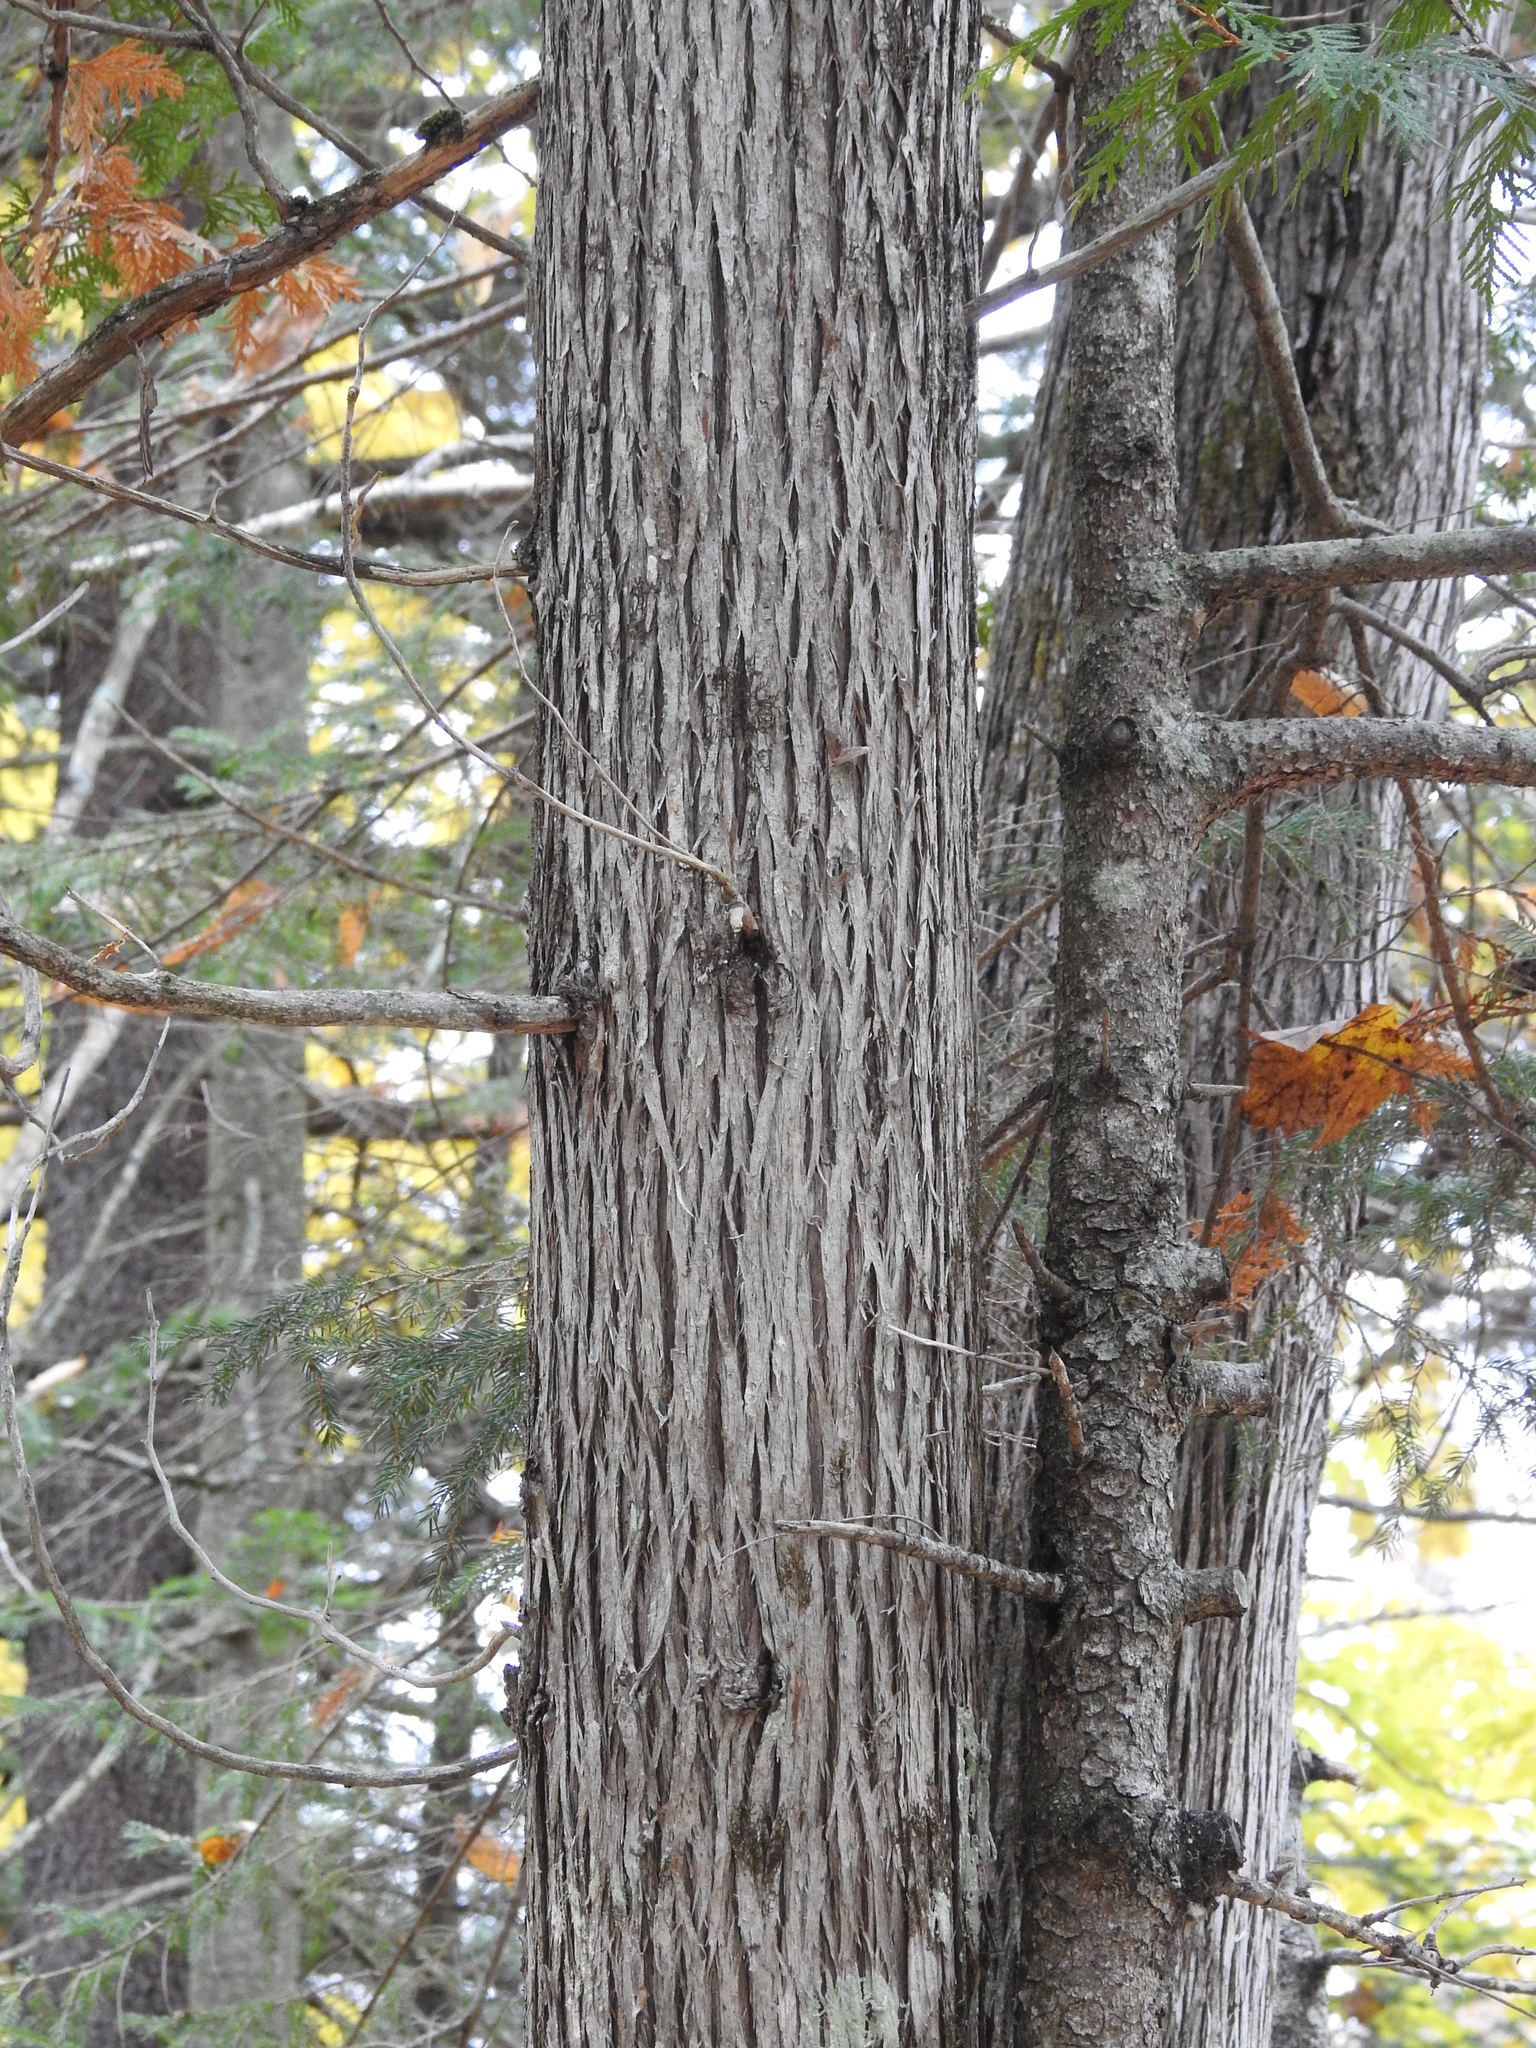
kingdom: Plantae
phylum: Tracheophyta
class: Pinopsida
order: Pinales
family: Cupressaceae
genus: Thuja
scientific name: Thuja occidentalis
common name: Northern white-cedar
